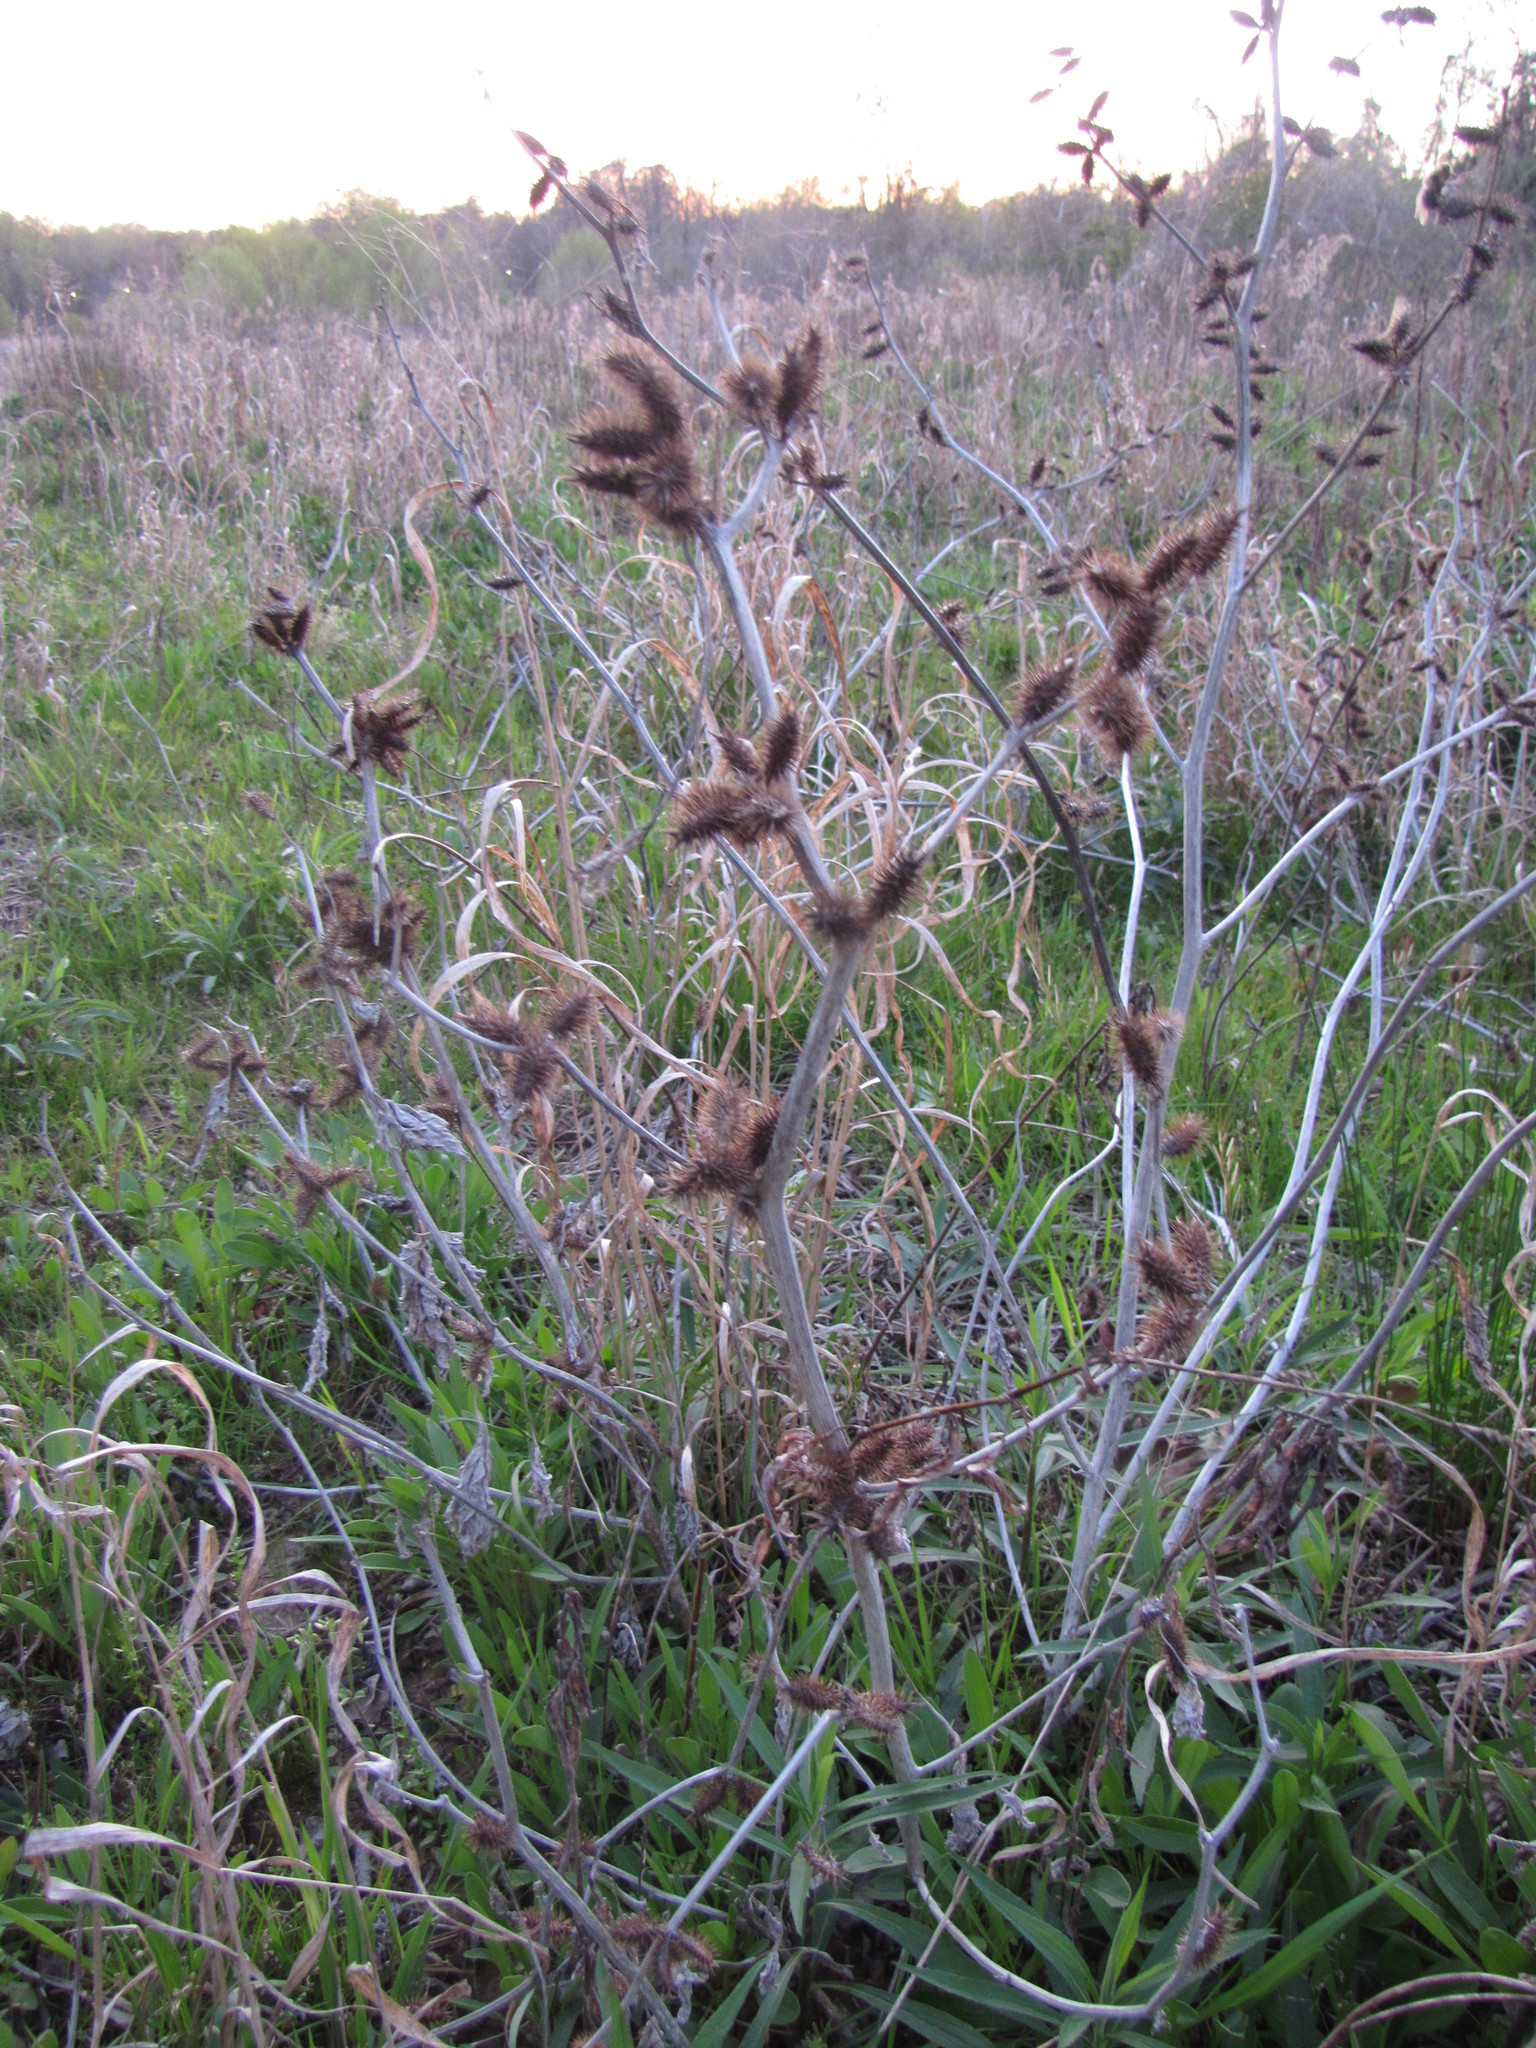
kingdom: Plantae
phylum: Tracheophyta
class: Magnoliopsida
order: Asterales
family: Asteraceae
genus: Xanthium
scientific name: Xanthium strumarium
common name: Rough cocklebur
